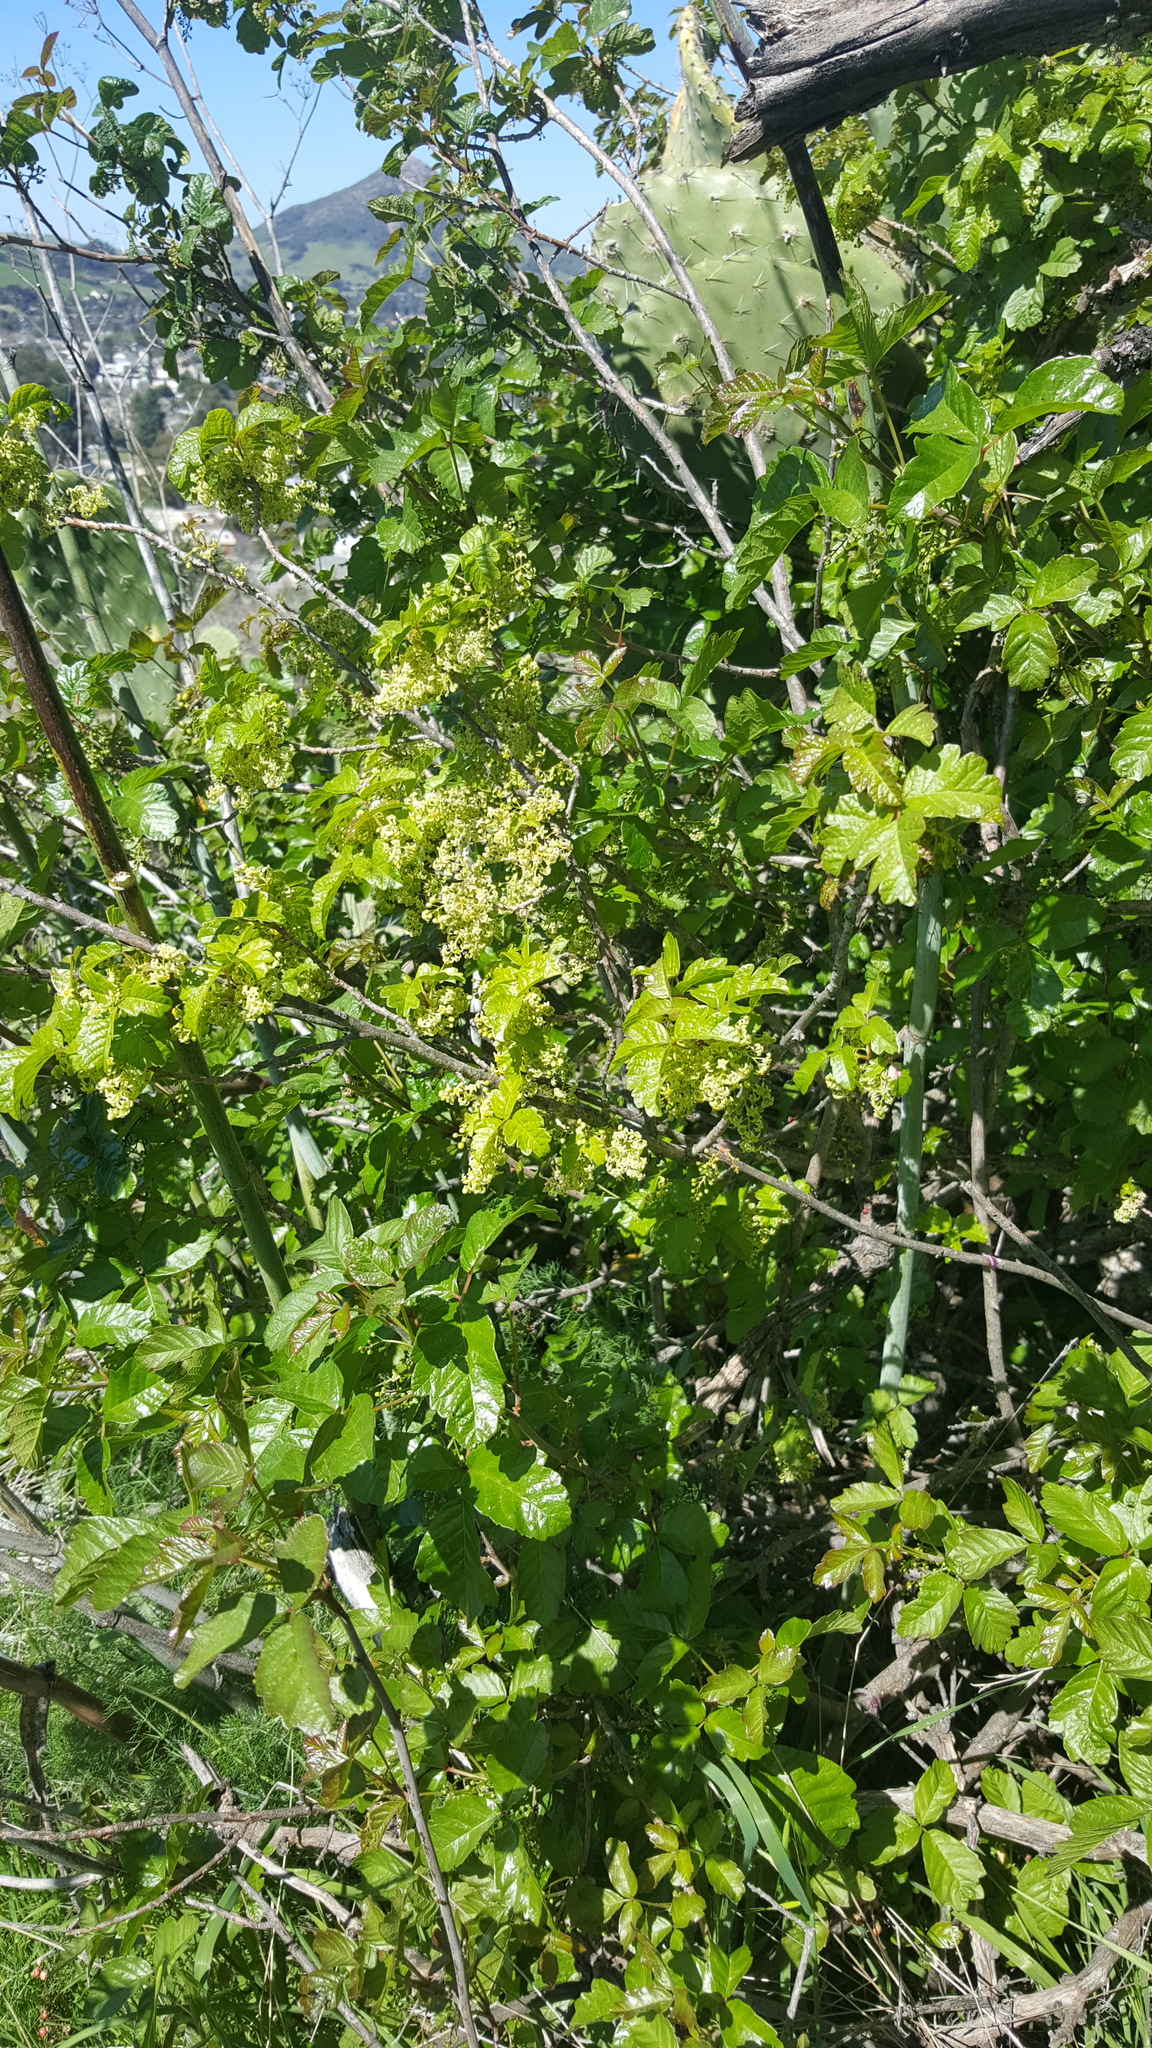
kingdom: Plantae
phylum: Tracheophyta
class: Magnoliopsida
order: Sapindales
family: Anacardiaceae
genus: Toxicodendron
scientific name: Toxicodendron diversilobum
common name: Pacific poison-oak
